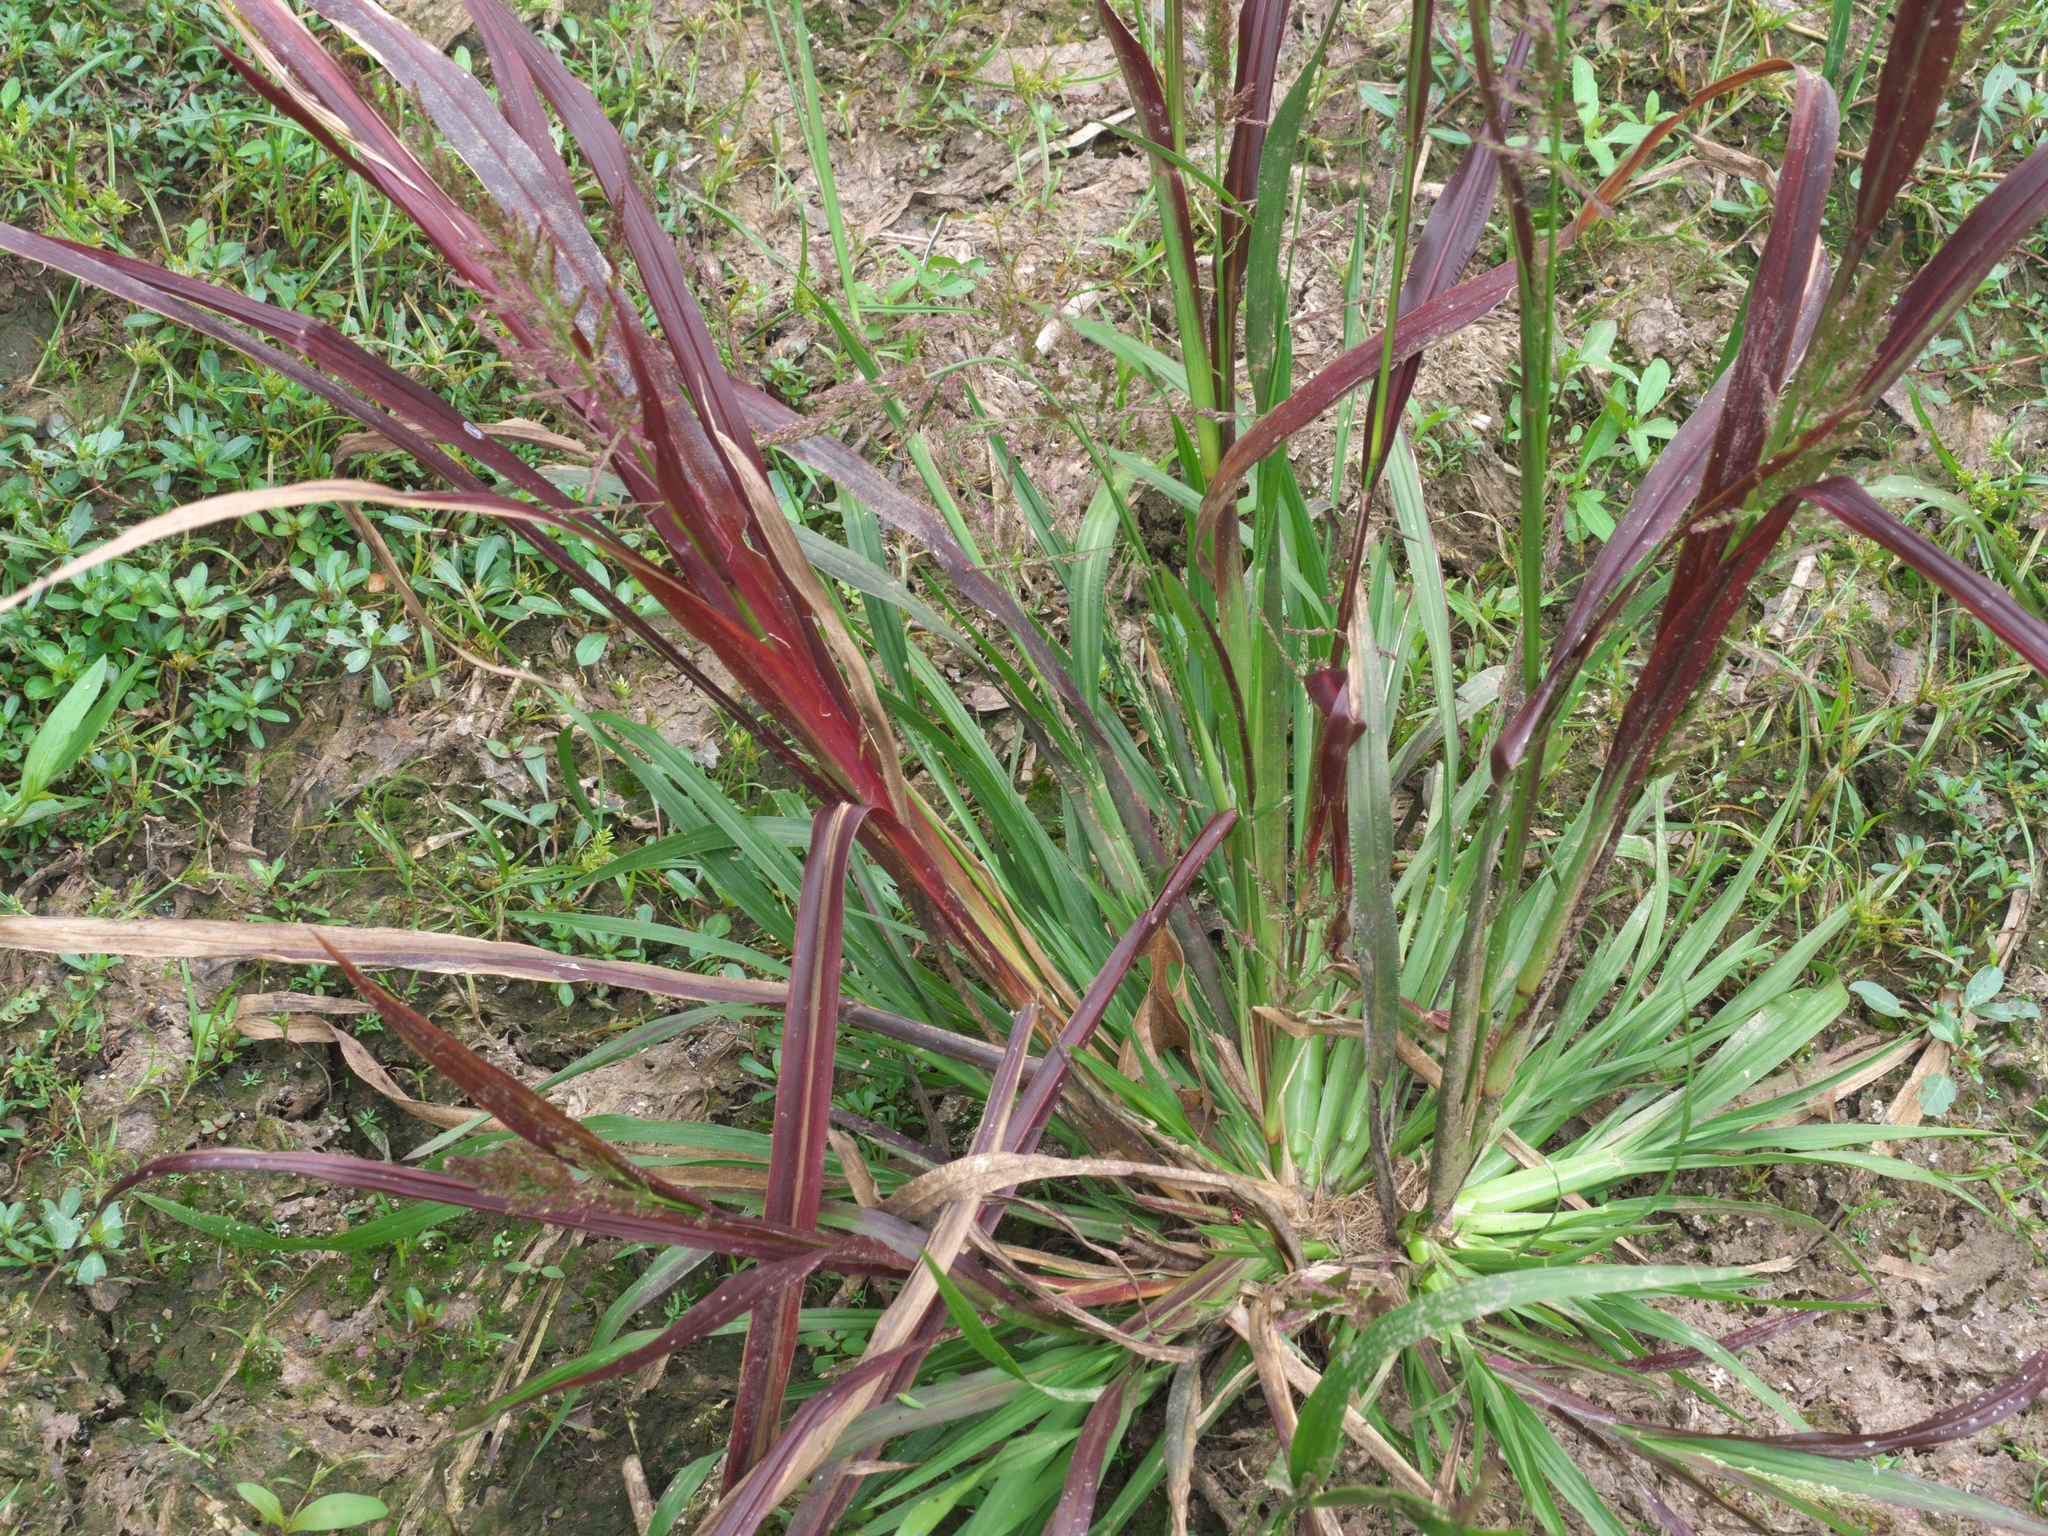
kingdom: Plantae
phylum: Tracheophyta
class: Liliopsida
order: Poales
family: Poaceae
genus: Coleataenia
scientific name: Coleataenia rigidula
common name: Redtop panicgrass
